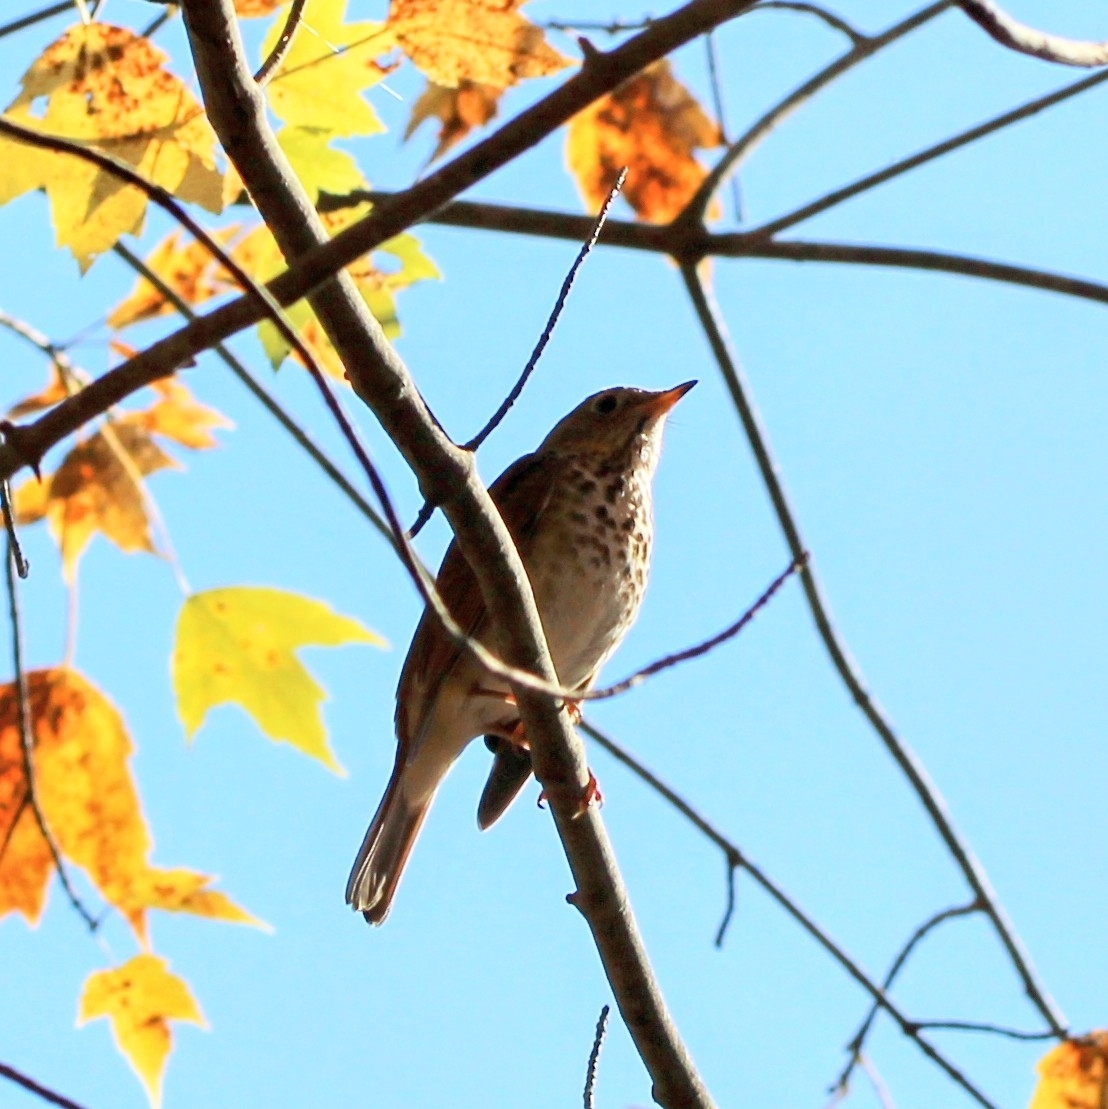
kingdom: Animalia
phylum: Chordata
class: Aves
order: Passeriformes
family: Turdidae
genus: Catharus
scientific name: Catharus guttatus
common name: Hermit thrush
